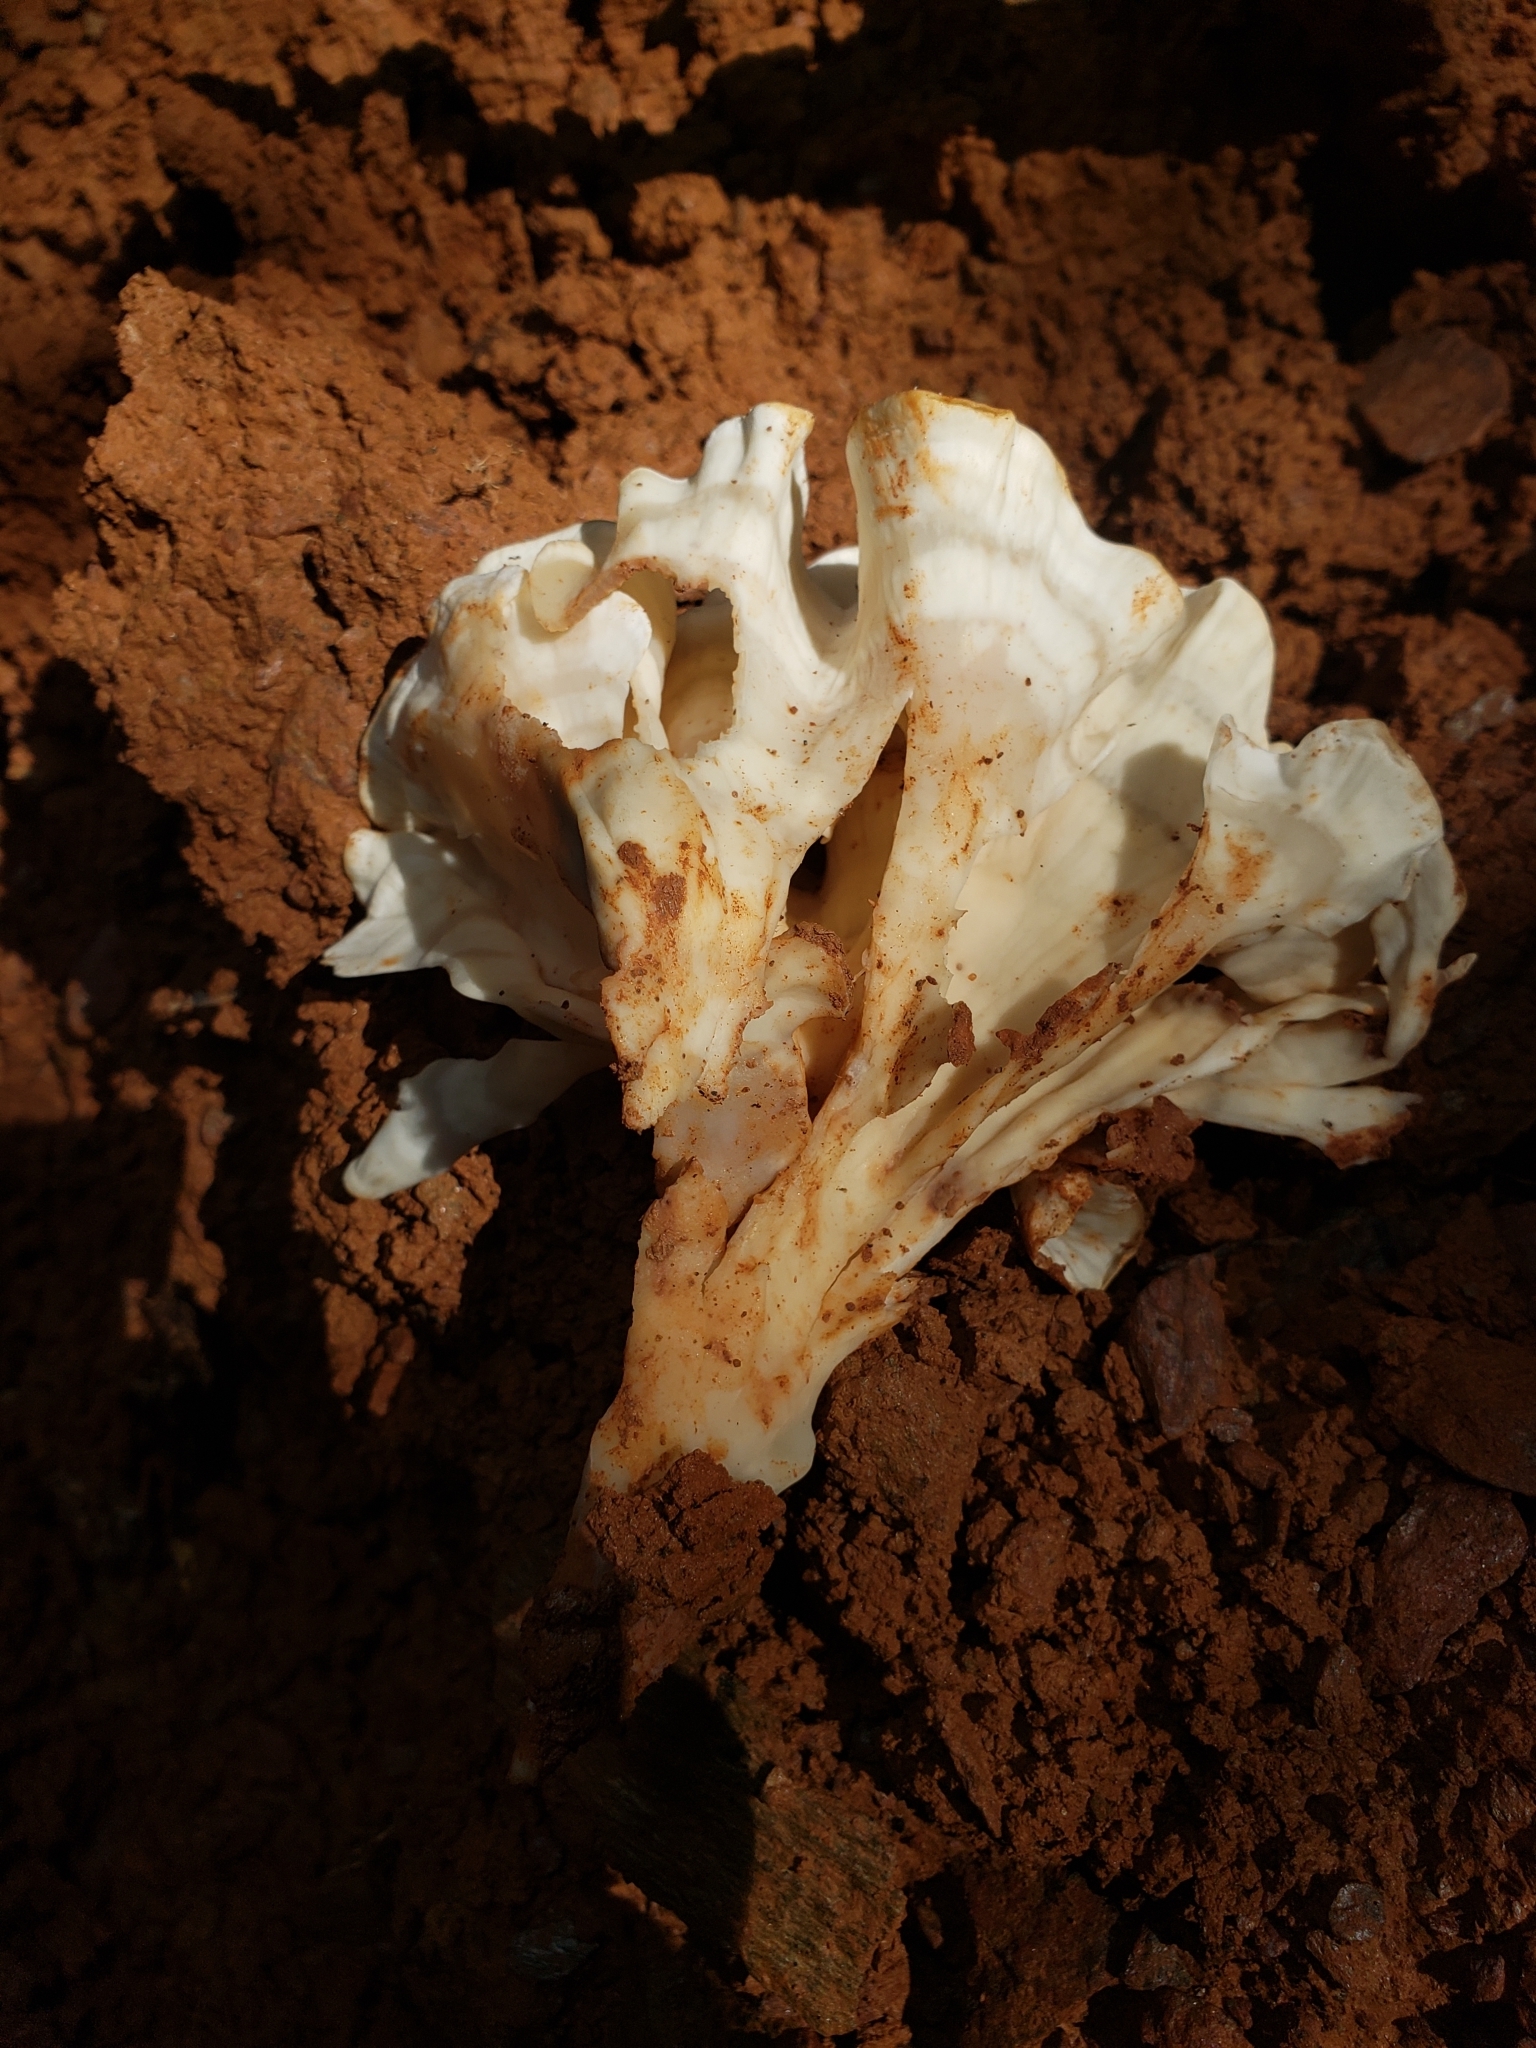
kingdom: Fungi
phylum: Basidiomycota
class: Agaricomycetes
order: Polyporales
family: Sparassidaceae
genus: Sparassis
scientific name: Sparassis spathulata
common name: Eastern cauliflower mushroom
